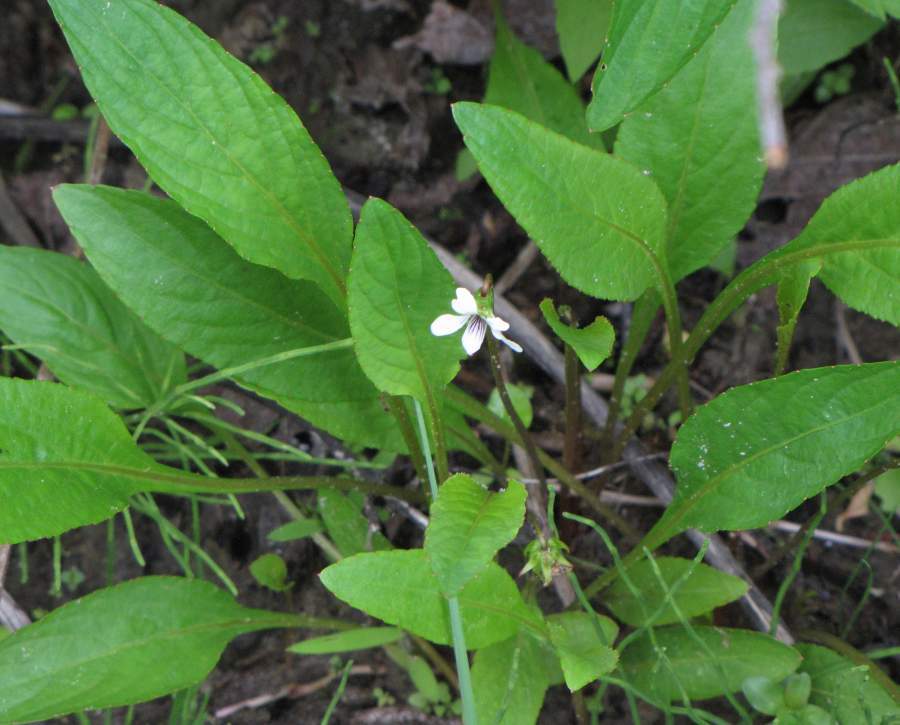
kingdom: Plantae
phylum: Tracheophyta
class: Magnoliopsida
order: Malpighiales
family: Violaceae
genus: Viola
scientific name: Viola sublanceolata
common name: Primrose-leaved violet
